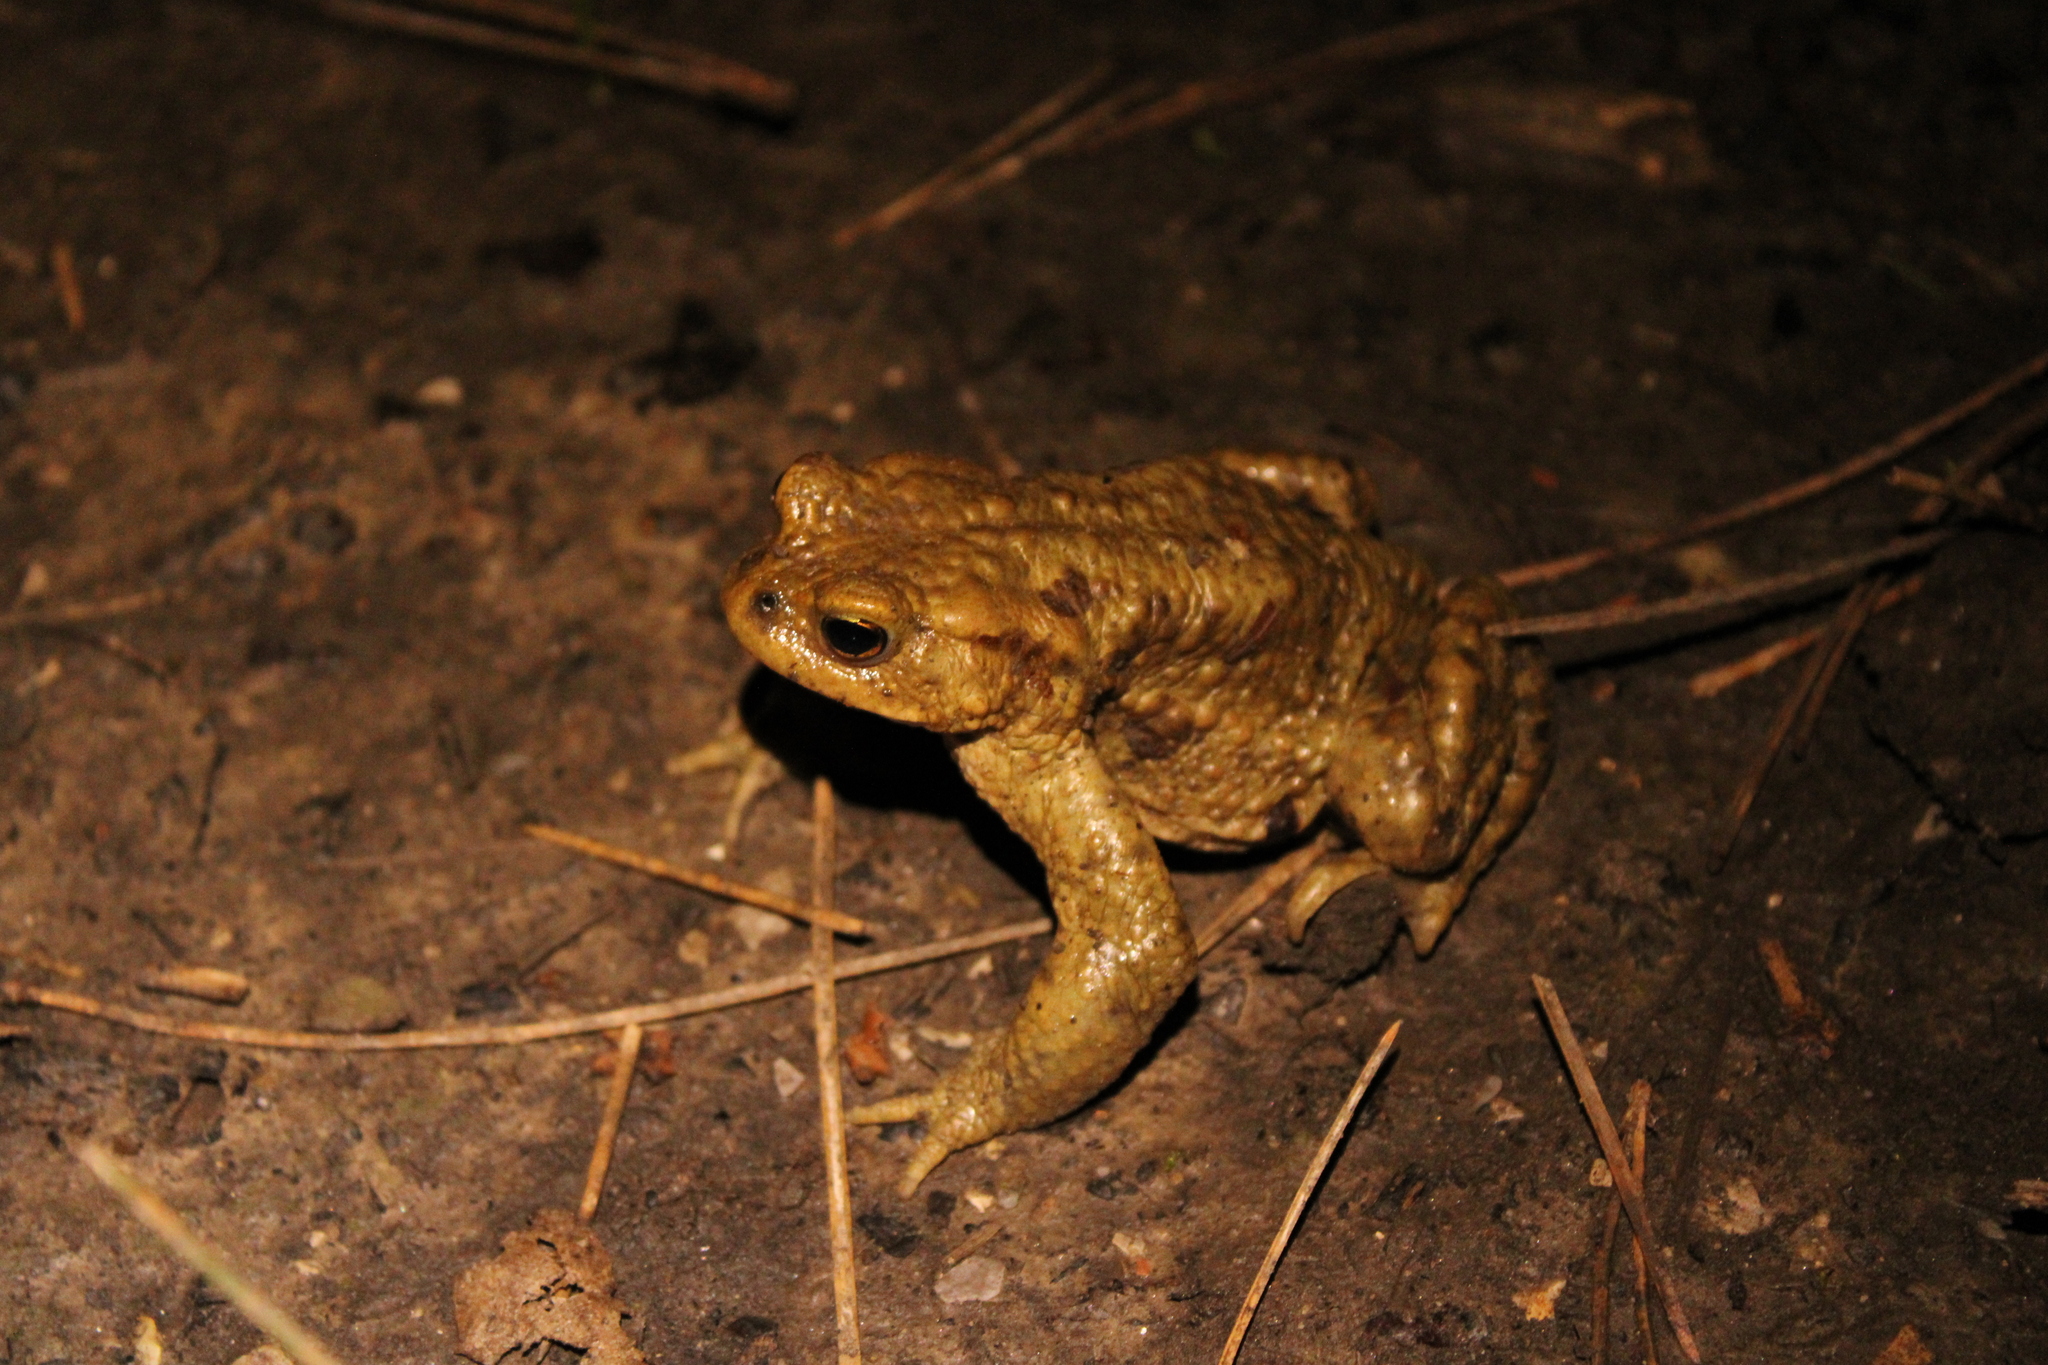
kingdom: Animalia
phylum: Chordata
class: Amphibia
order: Anura
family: Bufonidae
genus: Bufo
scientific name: Bufo bufo
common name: Common toad
